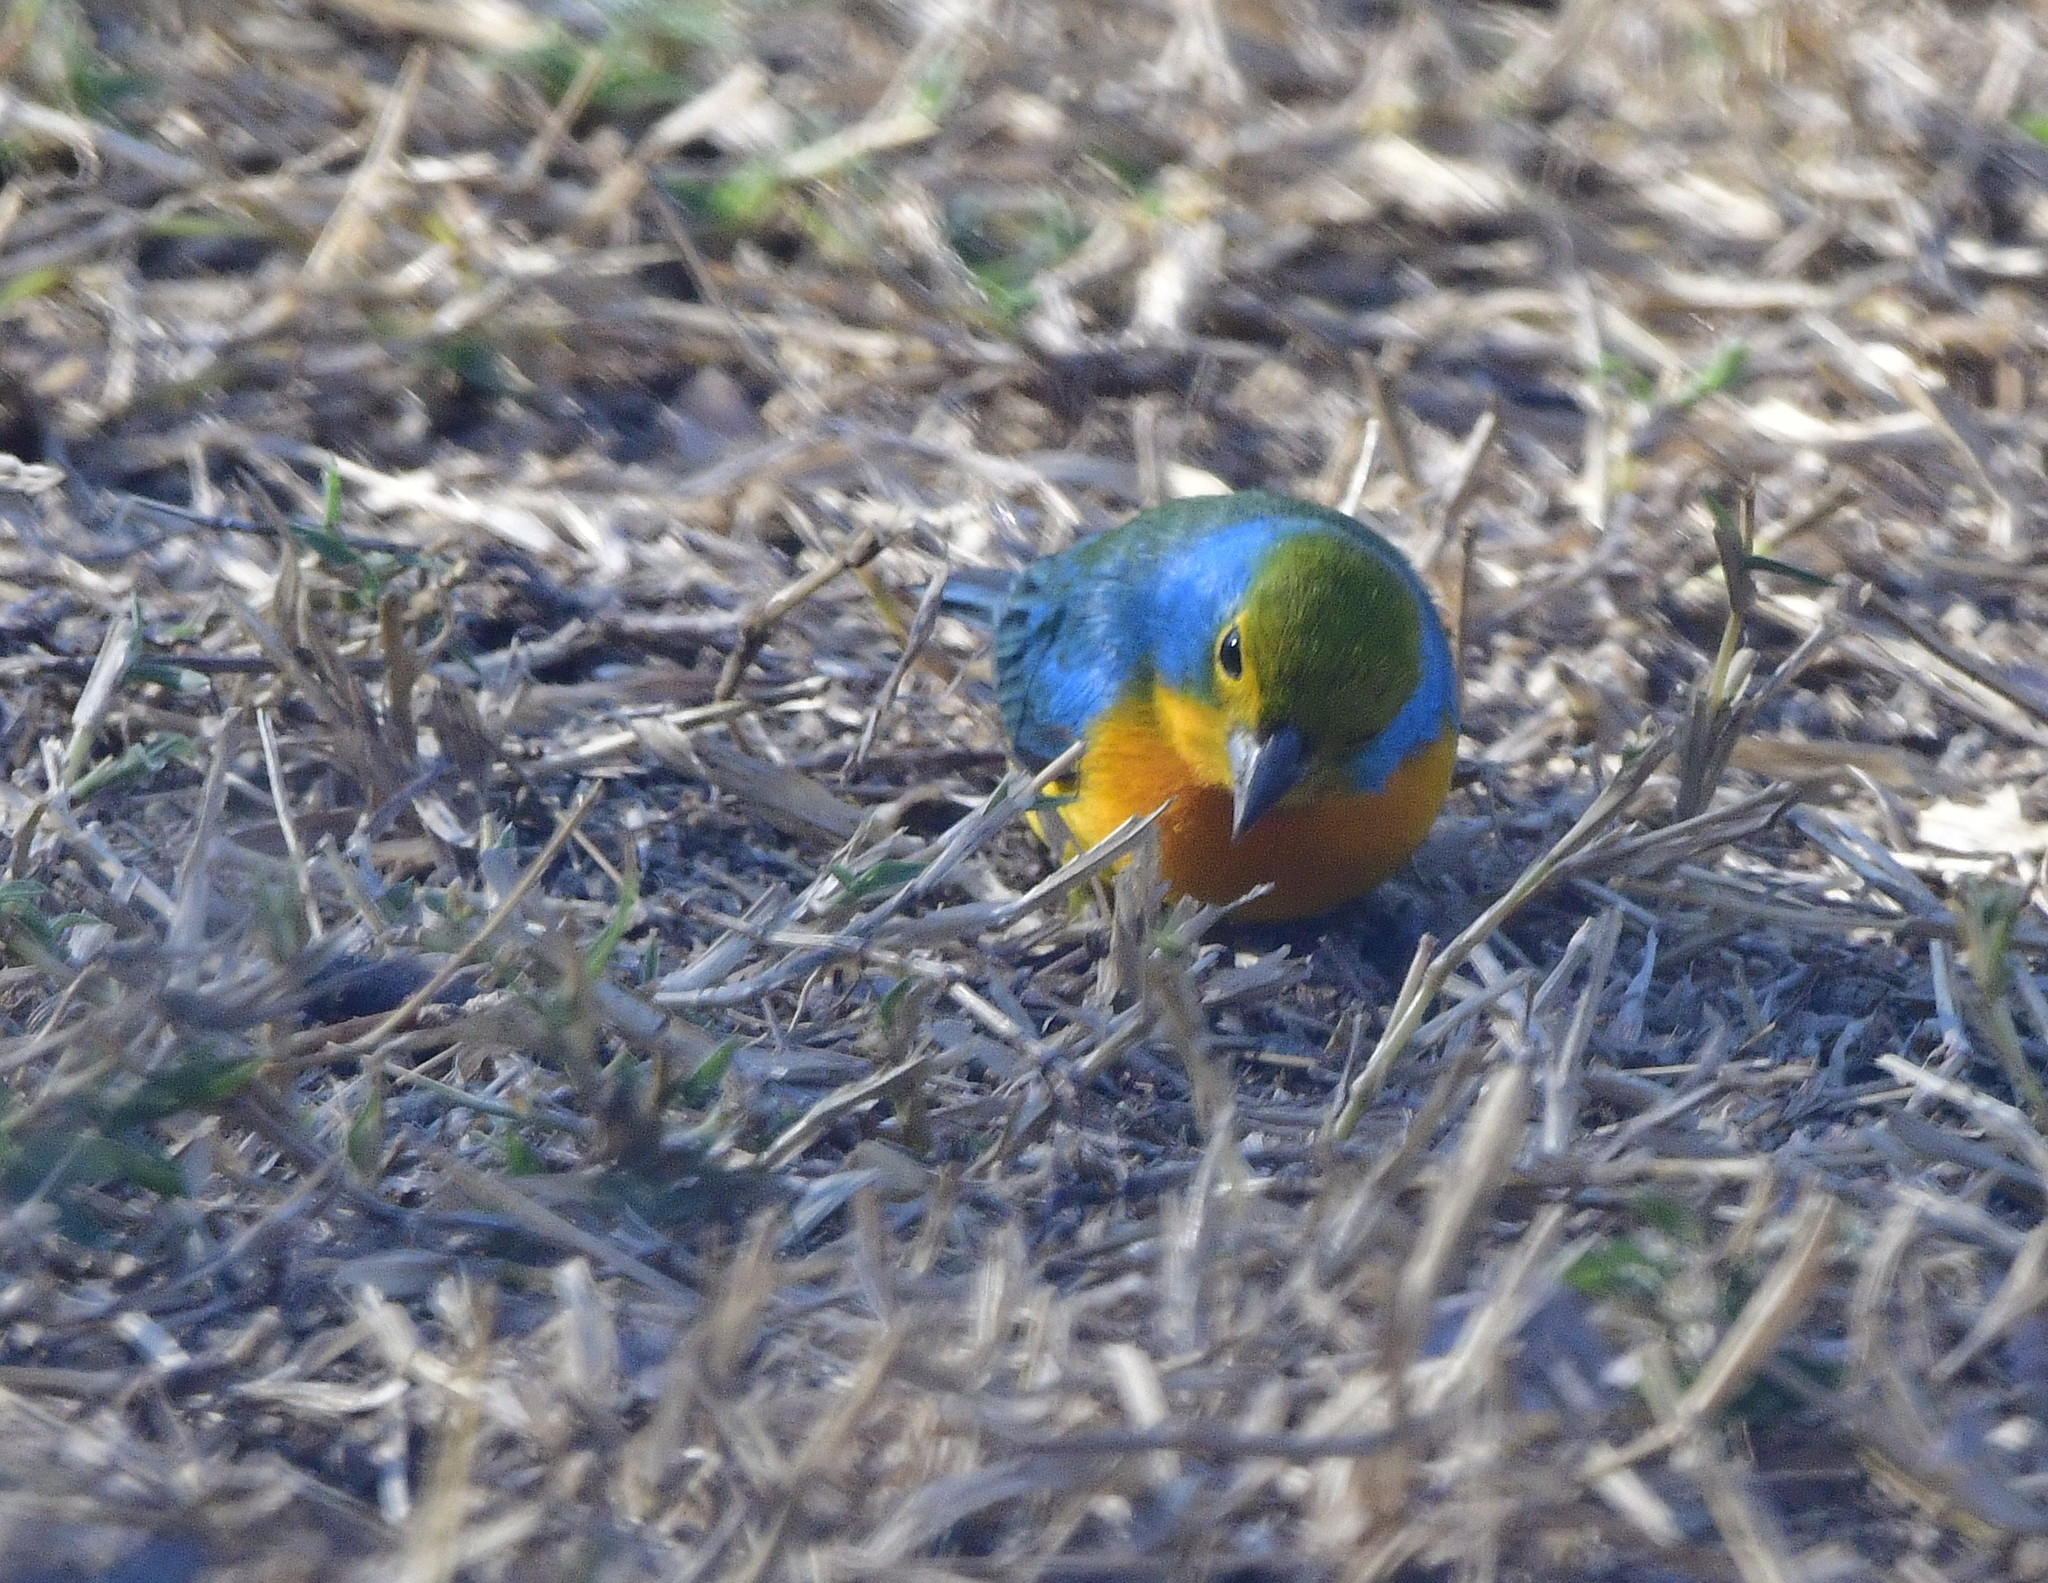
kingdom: Animalia
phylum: Chordata
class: Aves
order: Passeriformes
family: Cardinalidae
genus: Passerina
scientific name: Passerina leclancherii
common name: Orange-breasted bunting
